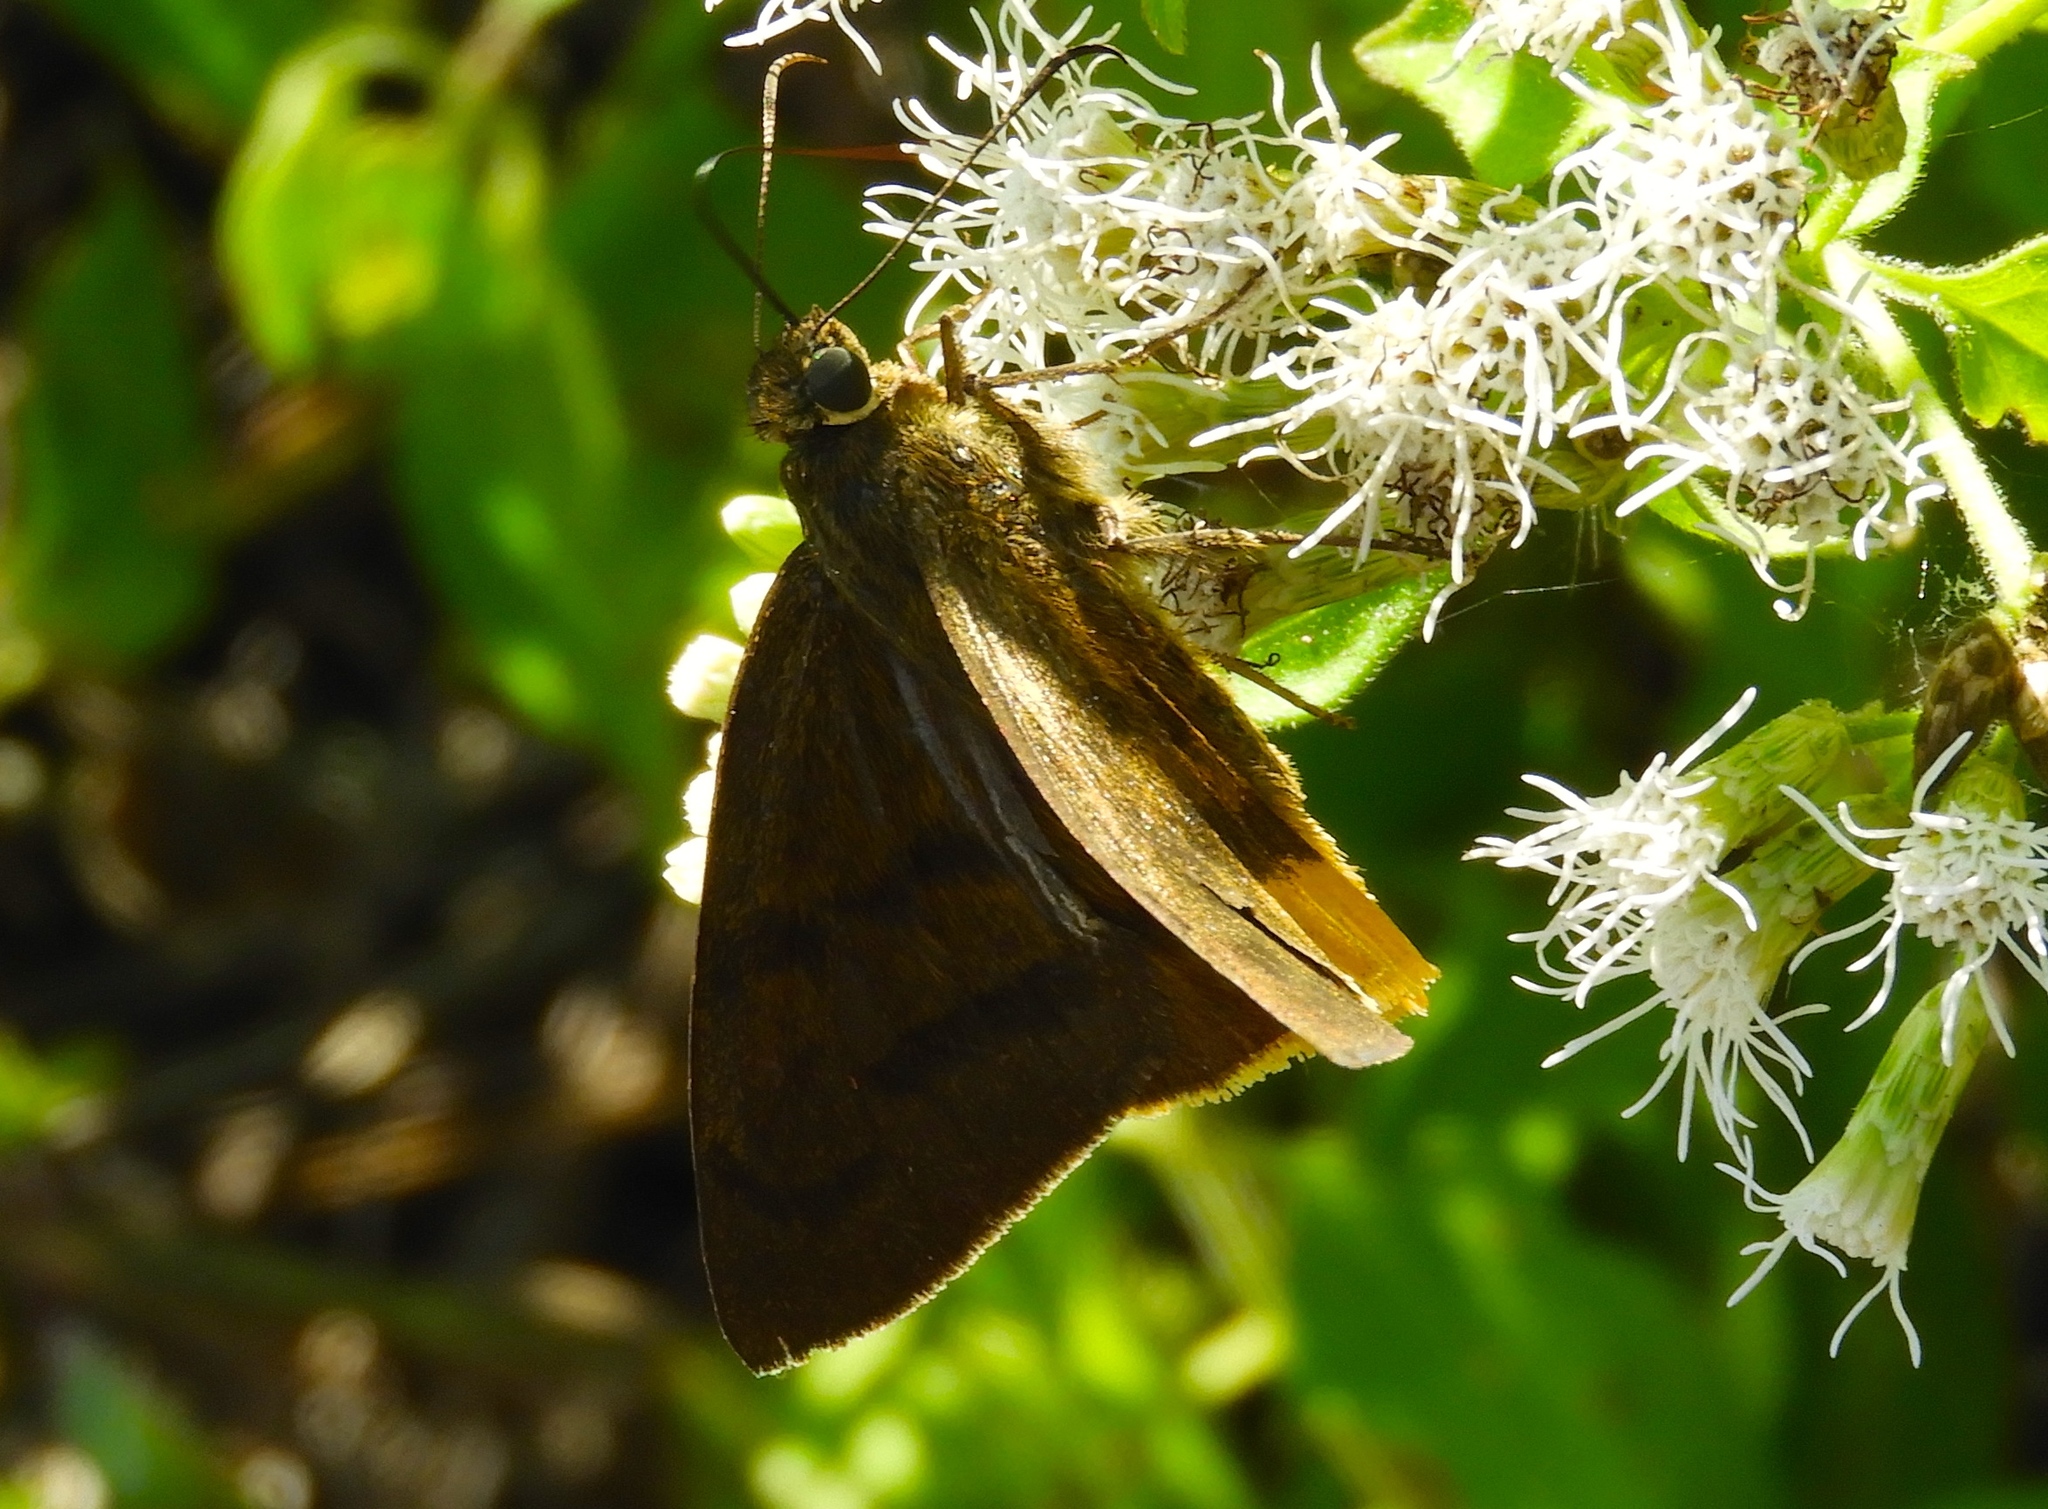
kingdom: Animalia
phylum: Arthropoda
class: Insecta
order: Lepidoptera
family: Hesperiidae
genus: Astraptes
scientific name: Astraptes
